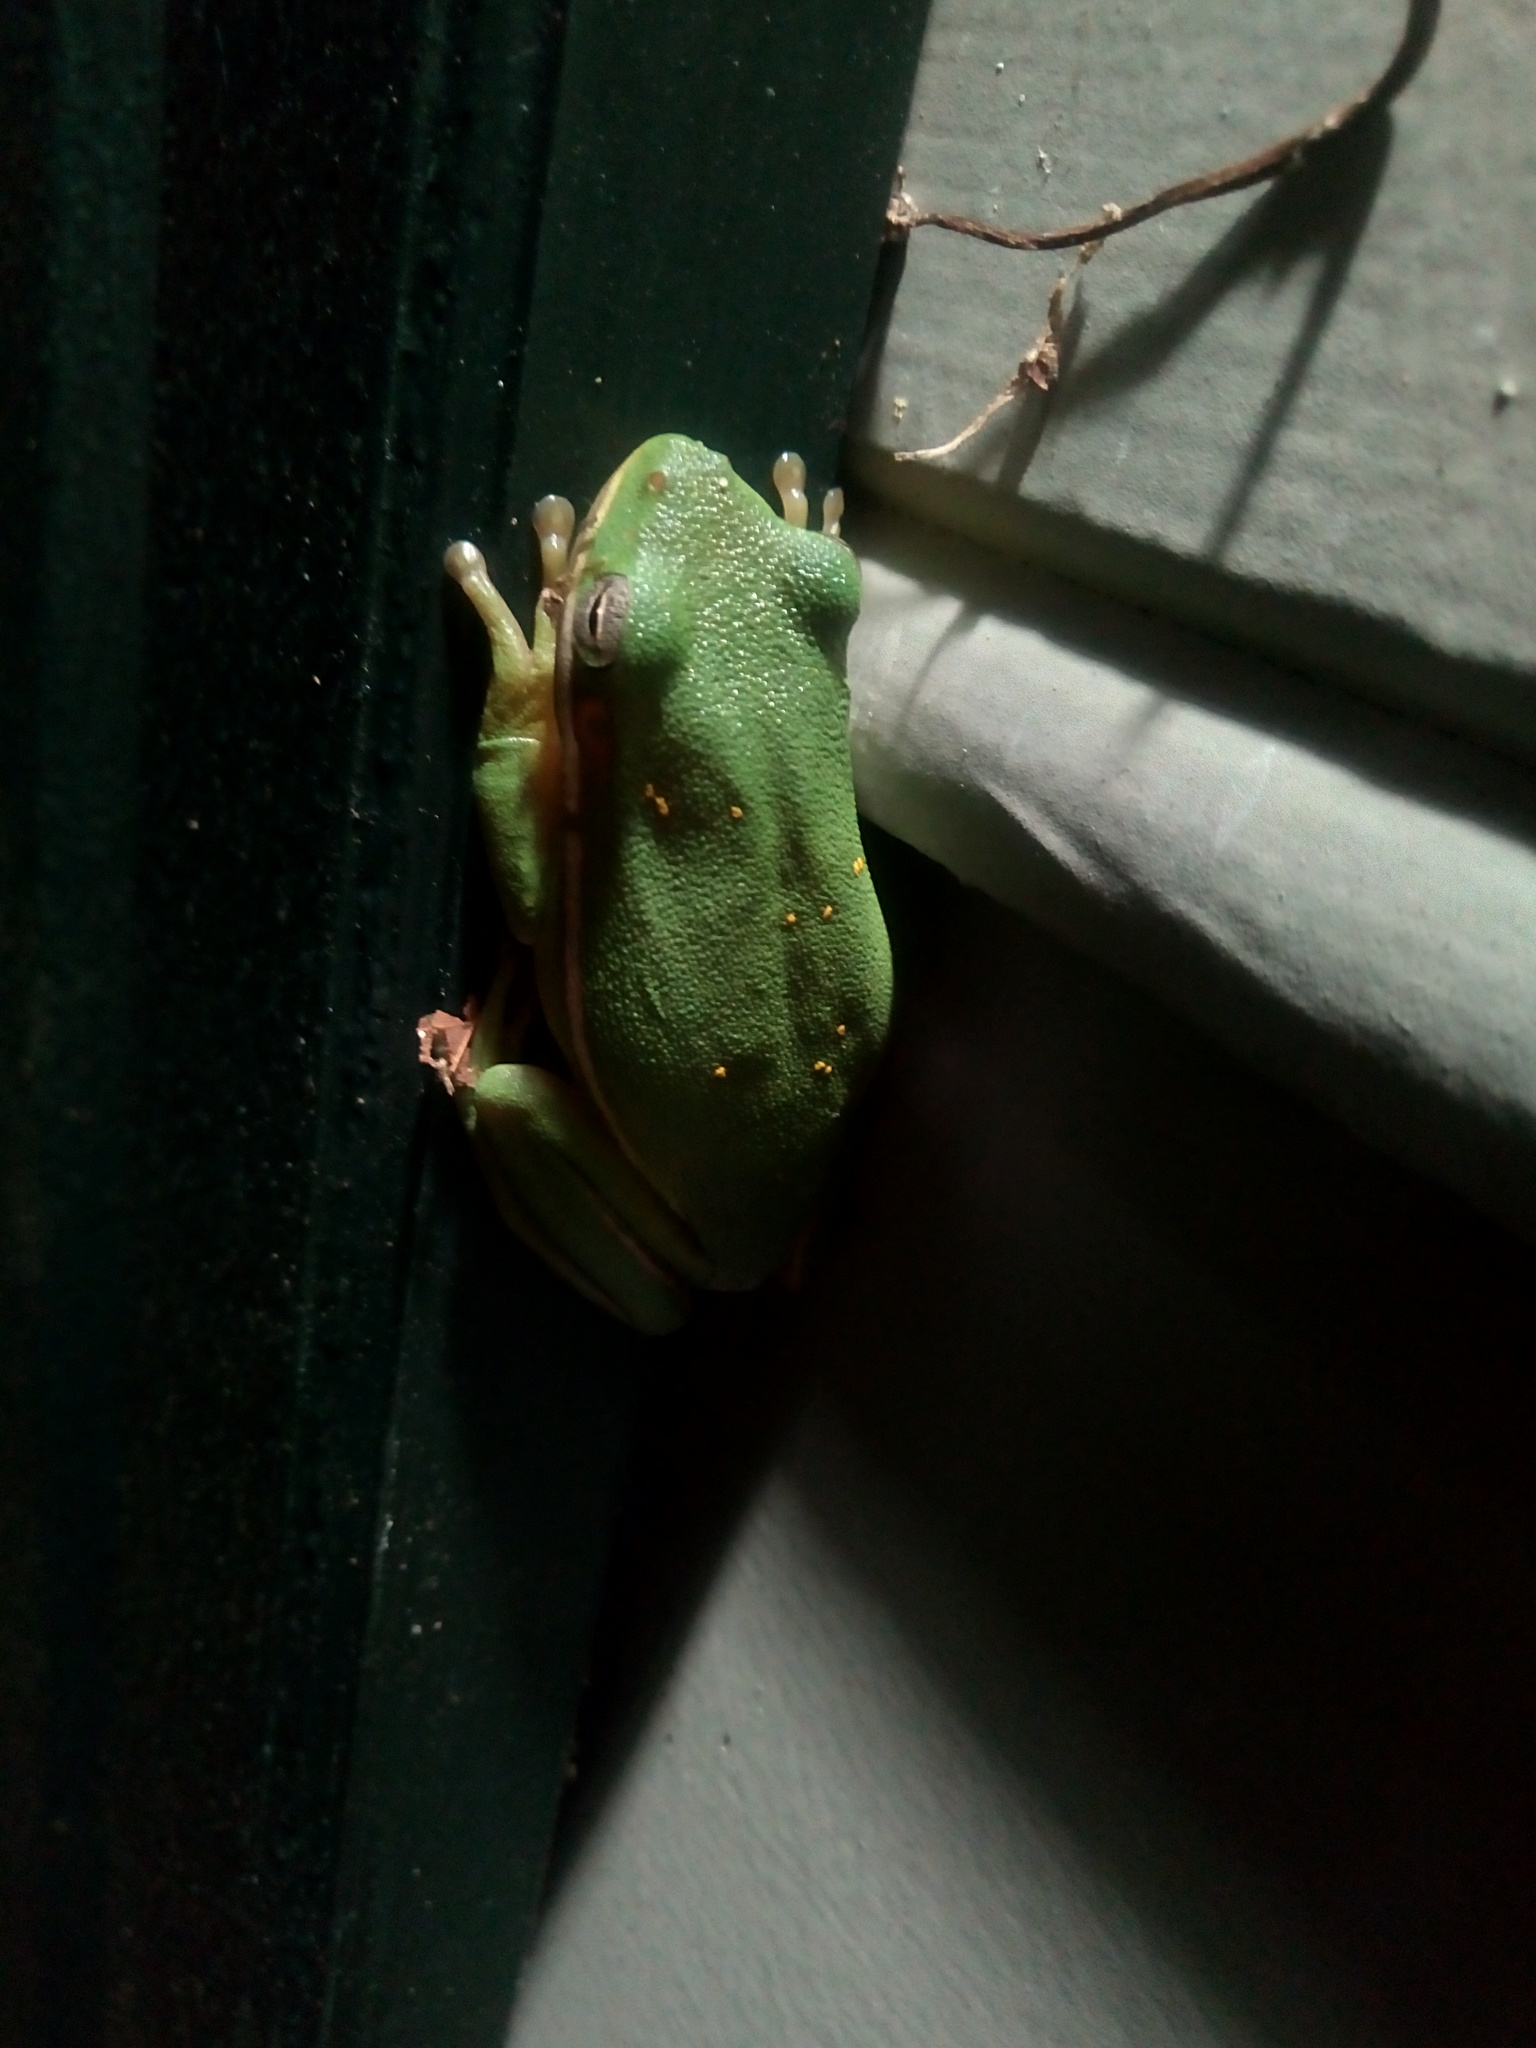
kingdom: Animalia
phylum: Chordata
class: Amphibia
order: Anura
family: Hylidae
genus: Dryophytes
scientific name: Dryophytes cinereus
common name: Green treefrog
